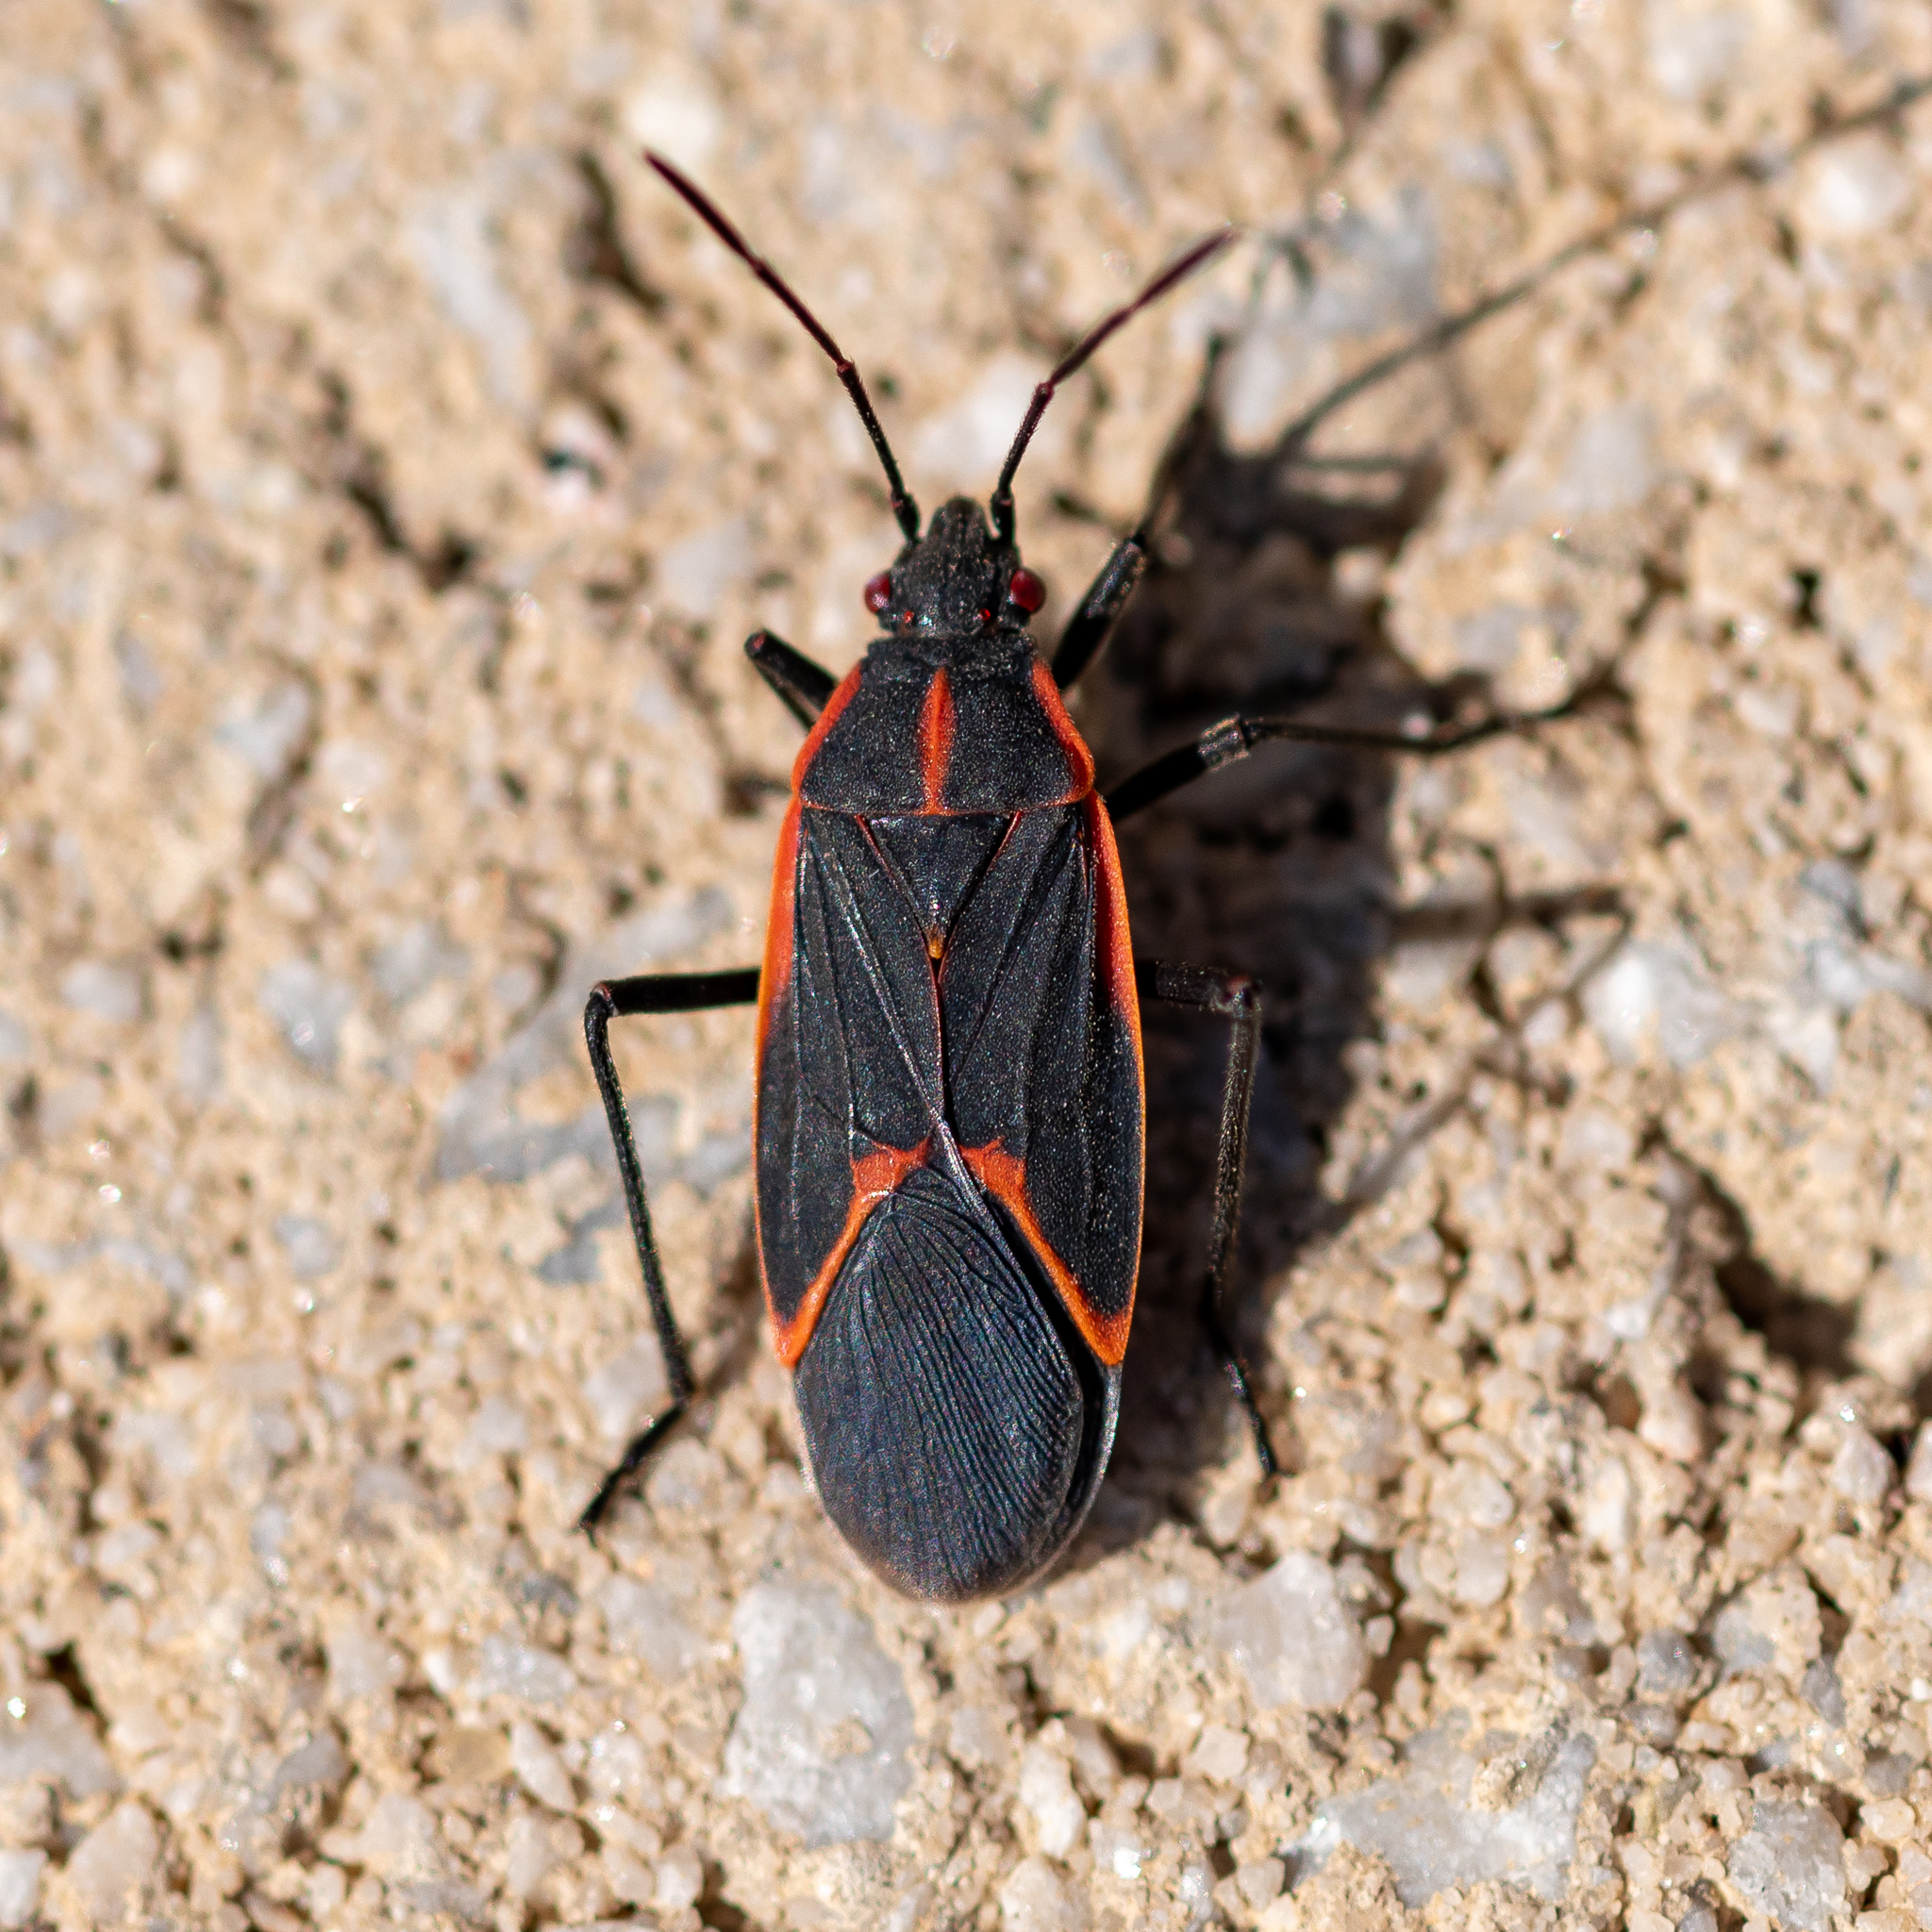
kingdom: Animalia
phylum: Arthropoda
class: Insecta
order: Hemiptera
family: Rhopalidae
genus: Boisea
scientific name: Boisea trivittata
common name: Boxelder bug
